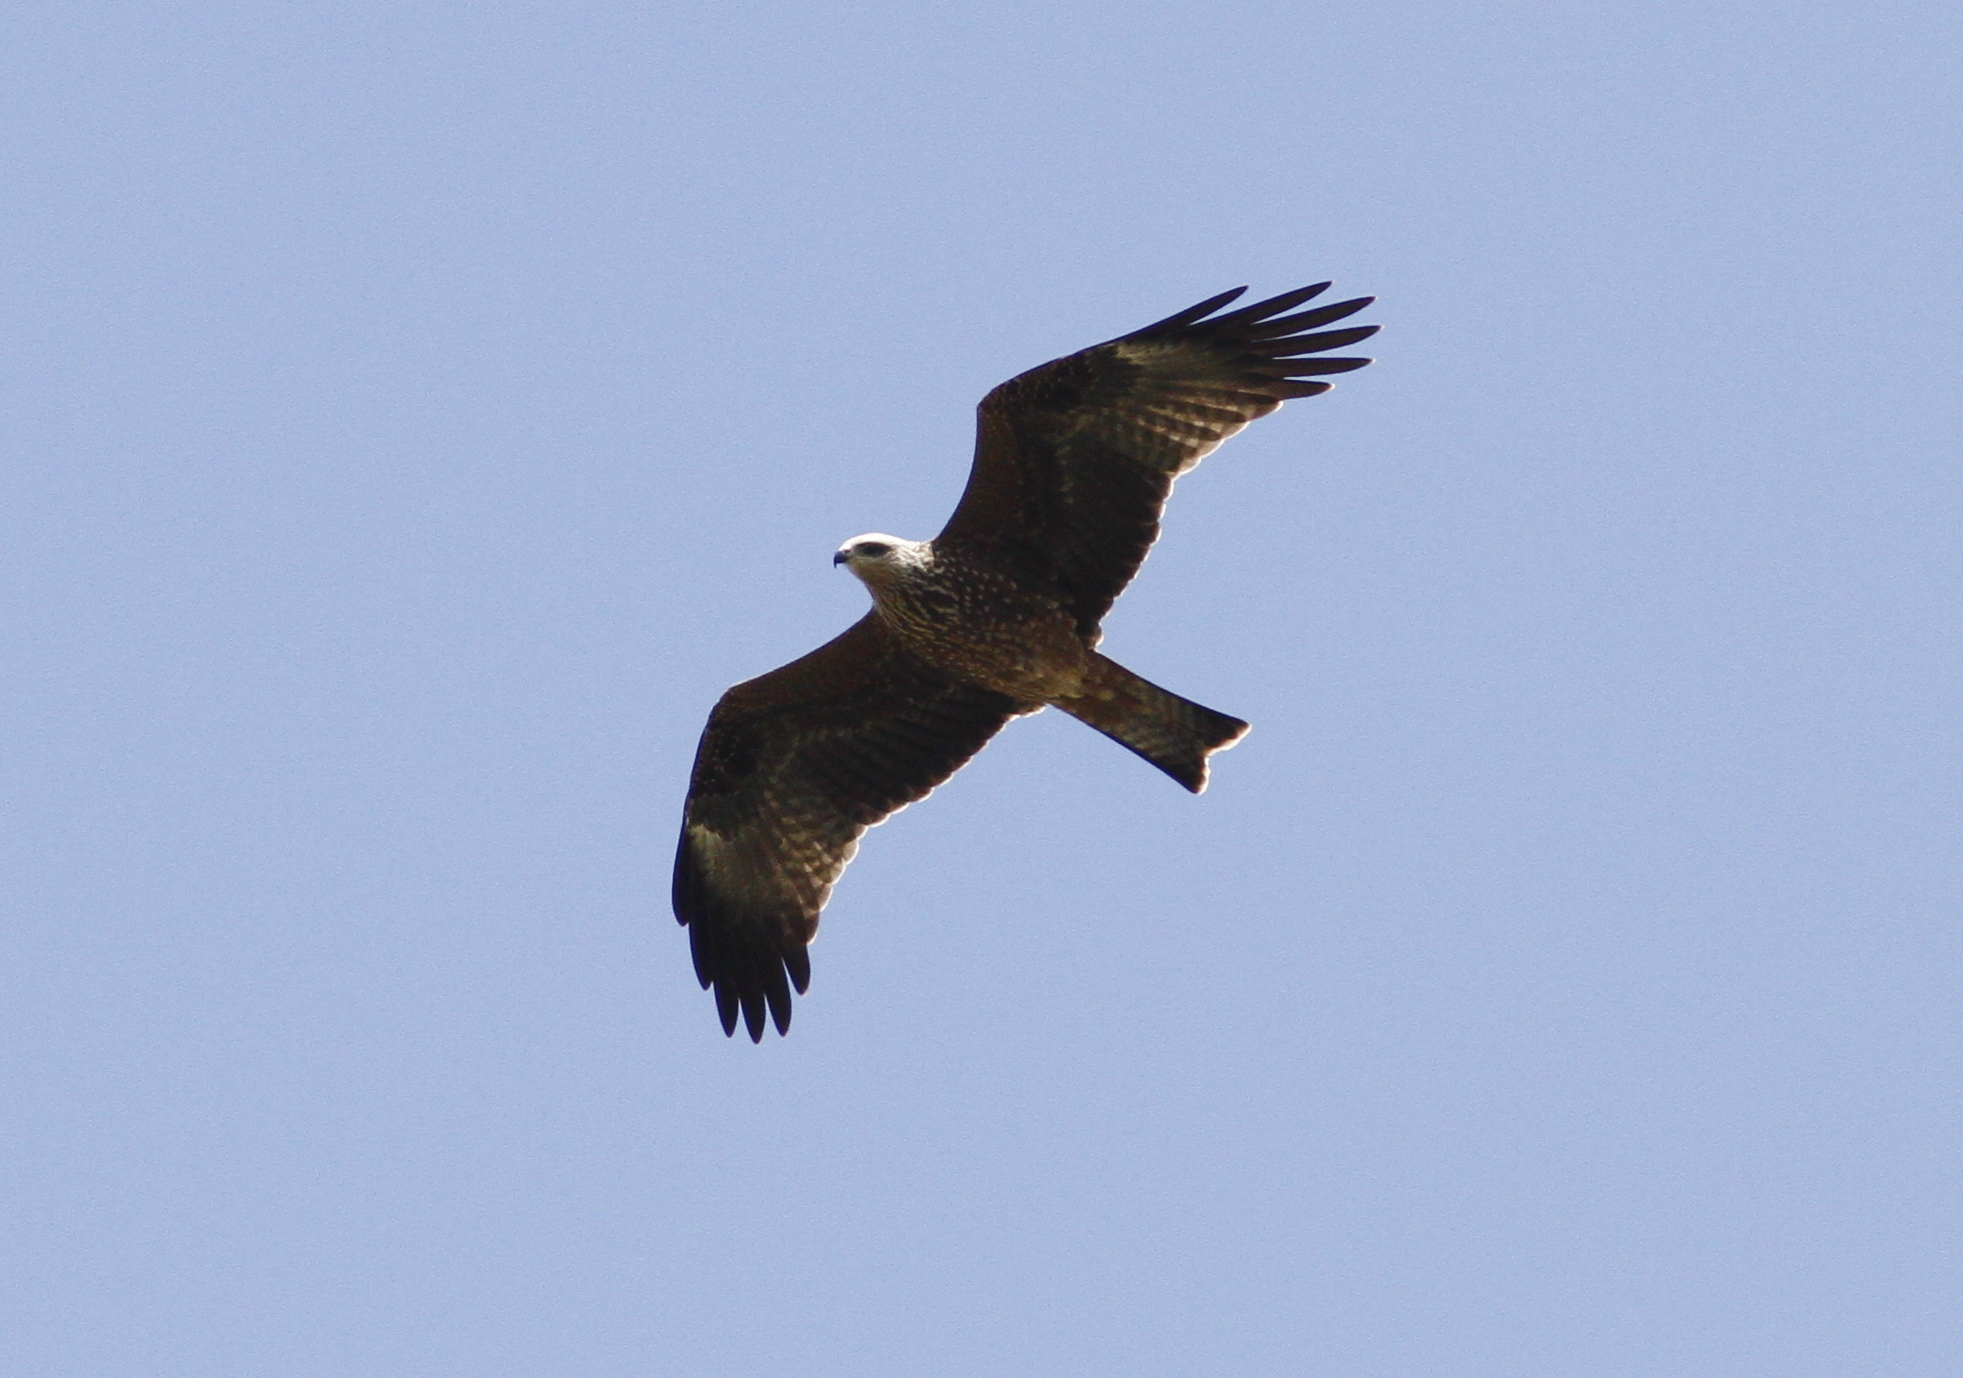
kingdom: Animalia
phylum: Chordata
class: Aves
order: Accipitriformes
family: Accipitridae
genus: Milvus
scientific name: Milvus migrans
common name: Black kite
